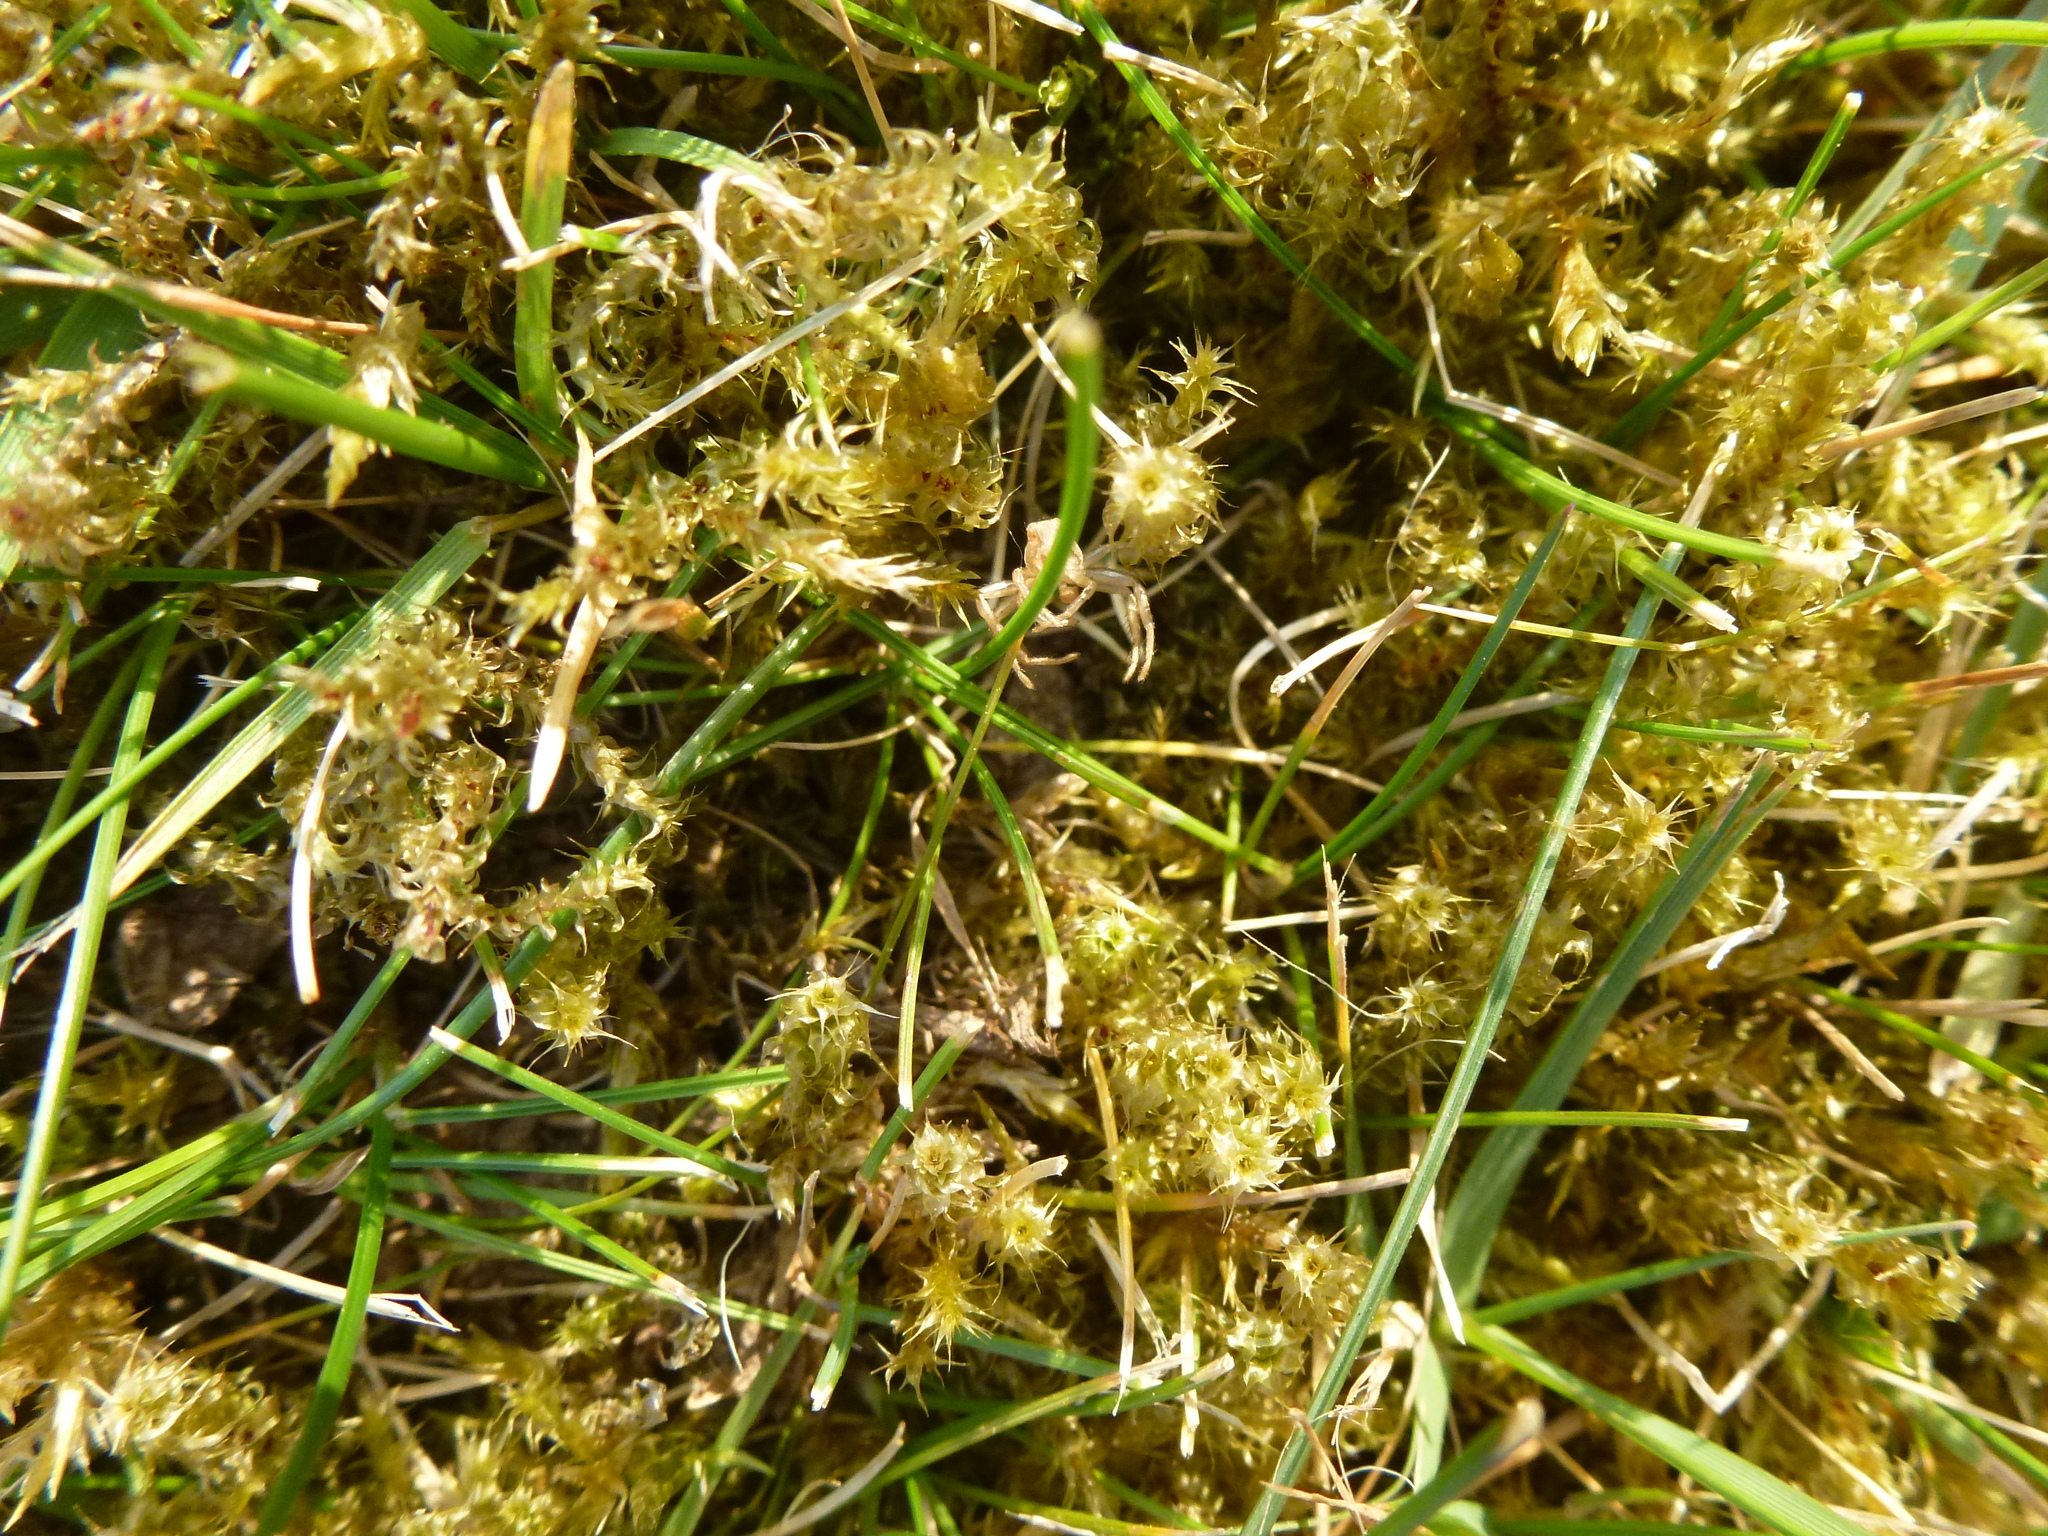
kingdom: Plantae
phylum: Bryophyta
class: Bryopsida
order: Hypnales
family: Hylocomiaceae
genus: Rhytidiadelphus
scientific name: Rhytidiadelphus squarrosus
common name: Springy turf-moss
